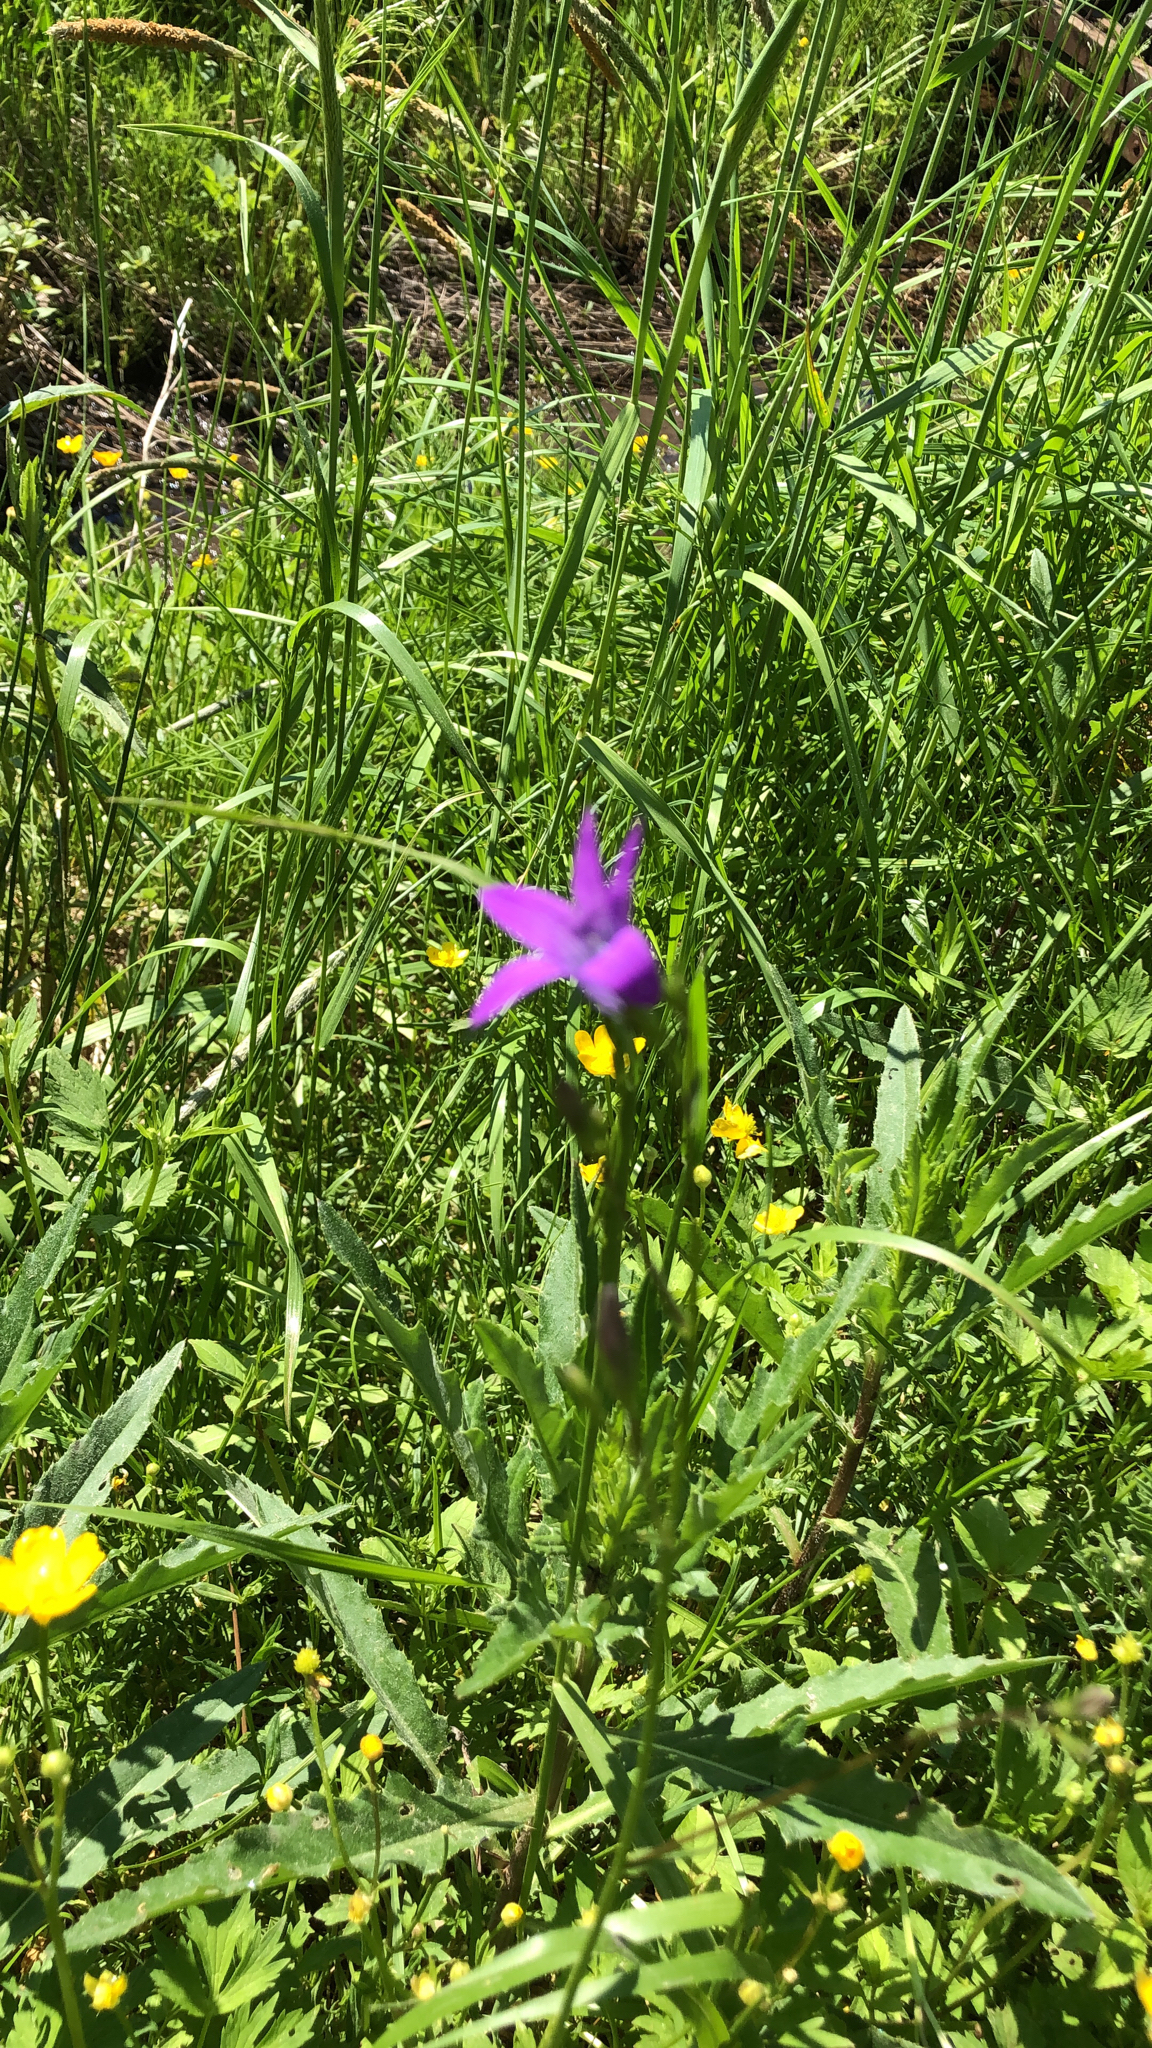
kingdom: Plantae
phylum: Tracheophyta
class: Magnoliopsida
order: Asterales
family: Campanulaceae
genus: Campanula
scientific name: Campanula patula
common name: Spreading bellflower
